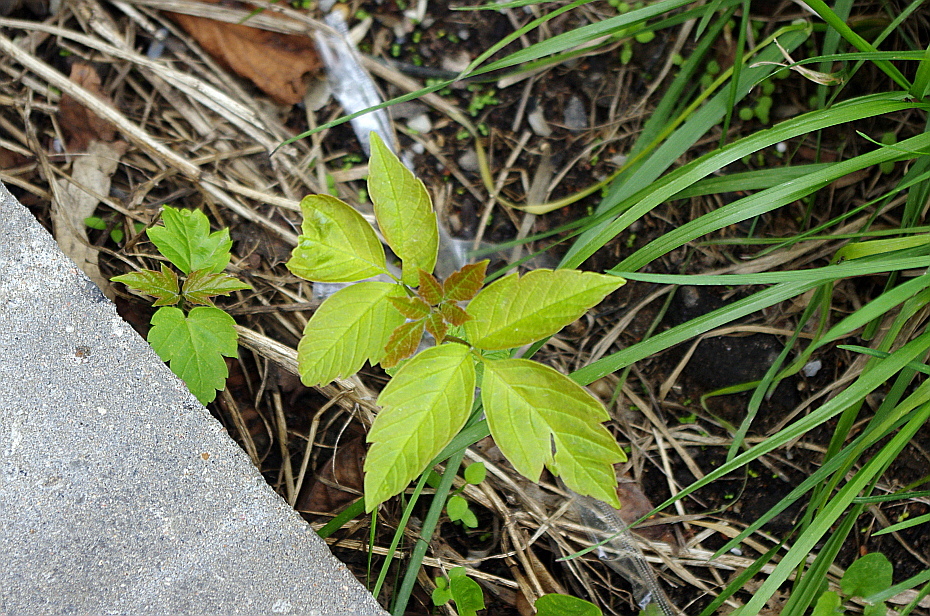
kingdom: Plantae
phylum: Tracheophyta
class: Magnoliopsida
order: Sapindales
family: Sapindaceae
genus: Acer
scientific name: Acer negundo
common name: Ashleaf maple
